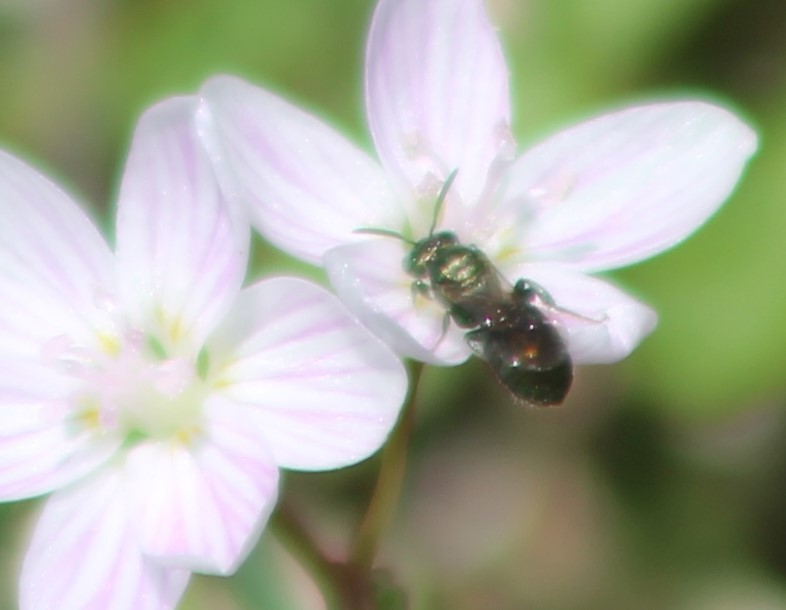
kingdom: Animalia
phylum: Arthropoda
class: Insecta
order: Hymenoptera
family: Apidae
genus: Zadontomerus
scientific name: Zadontomerus
